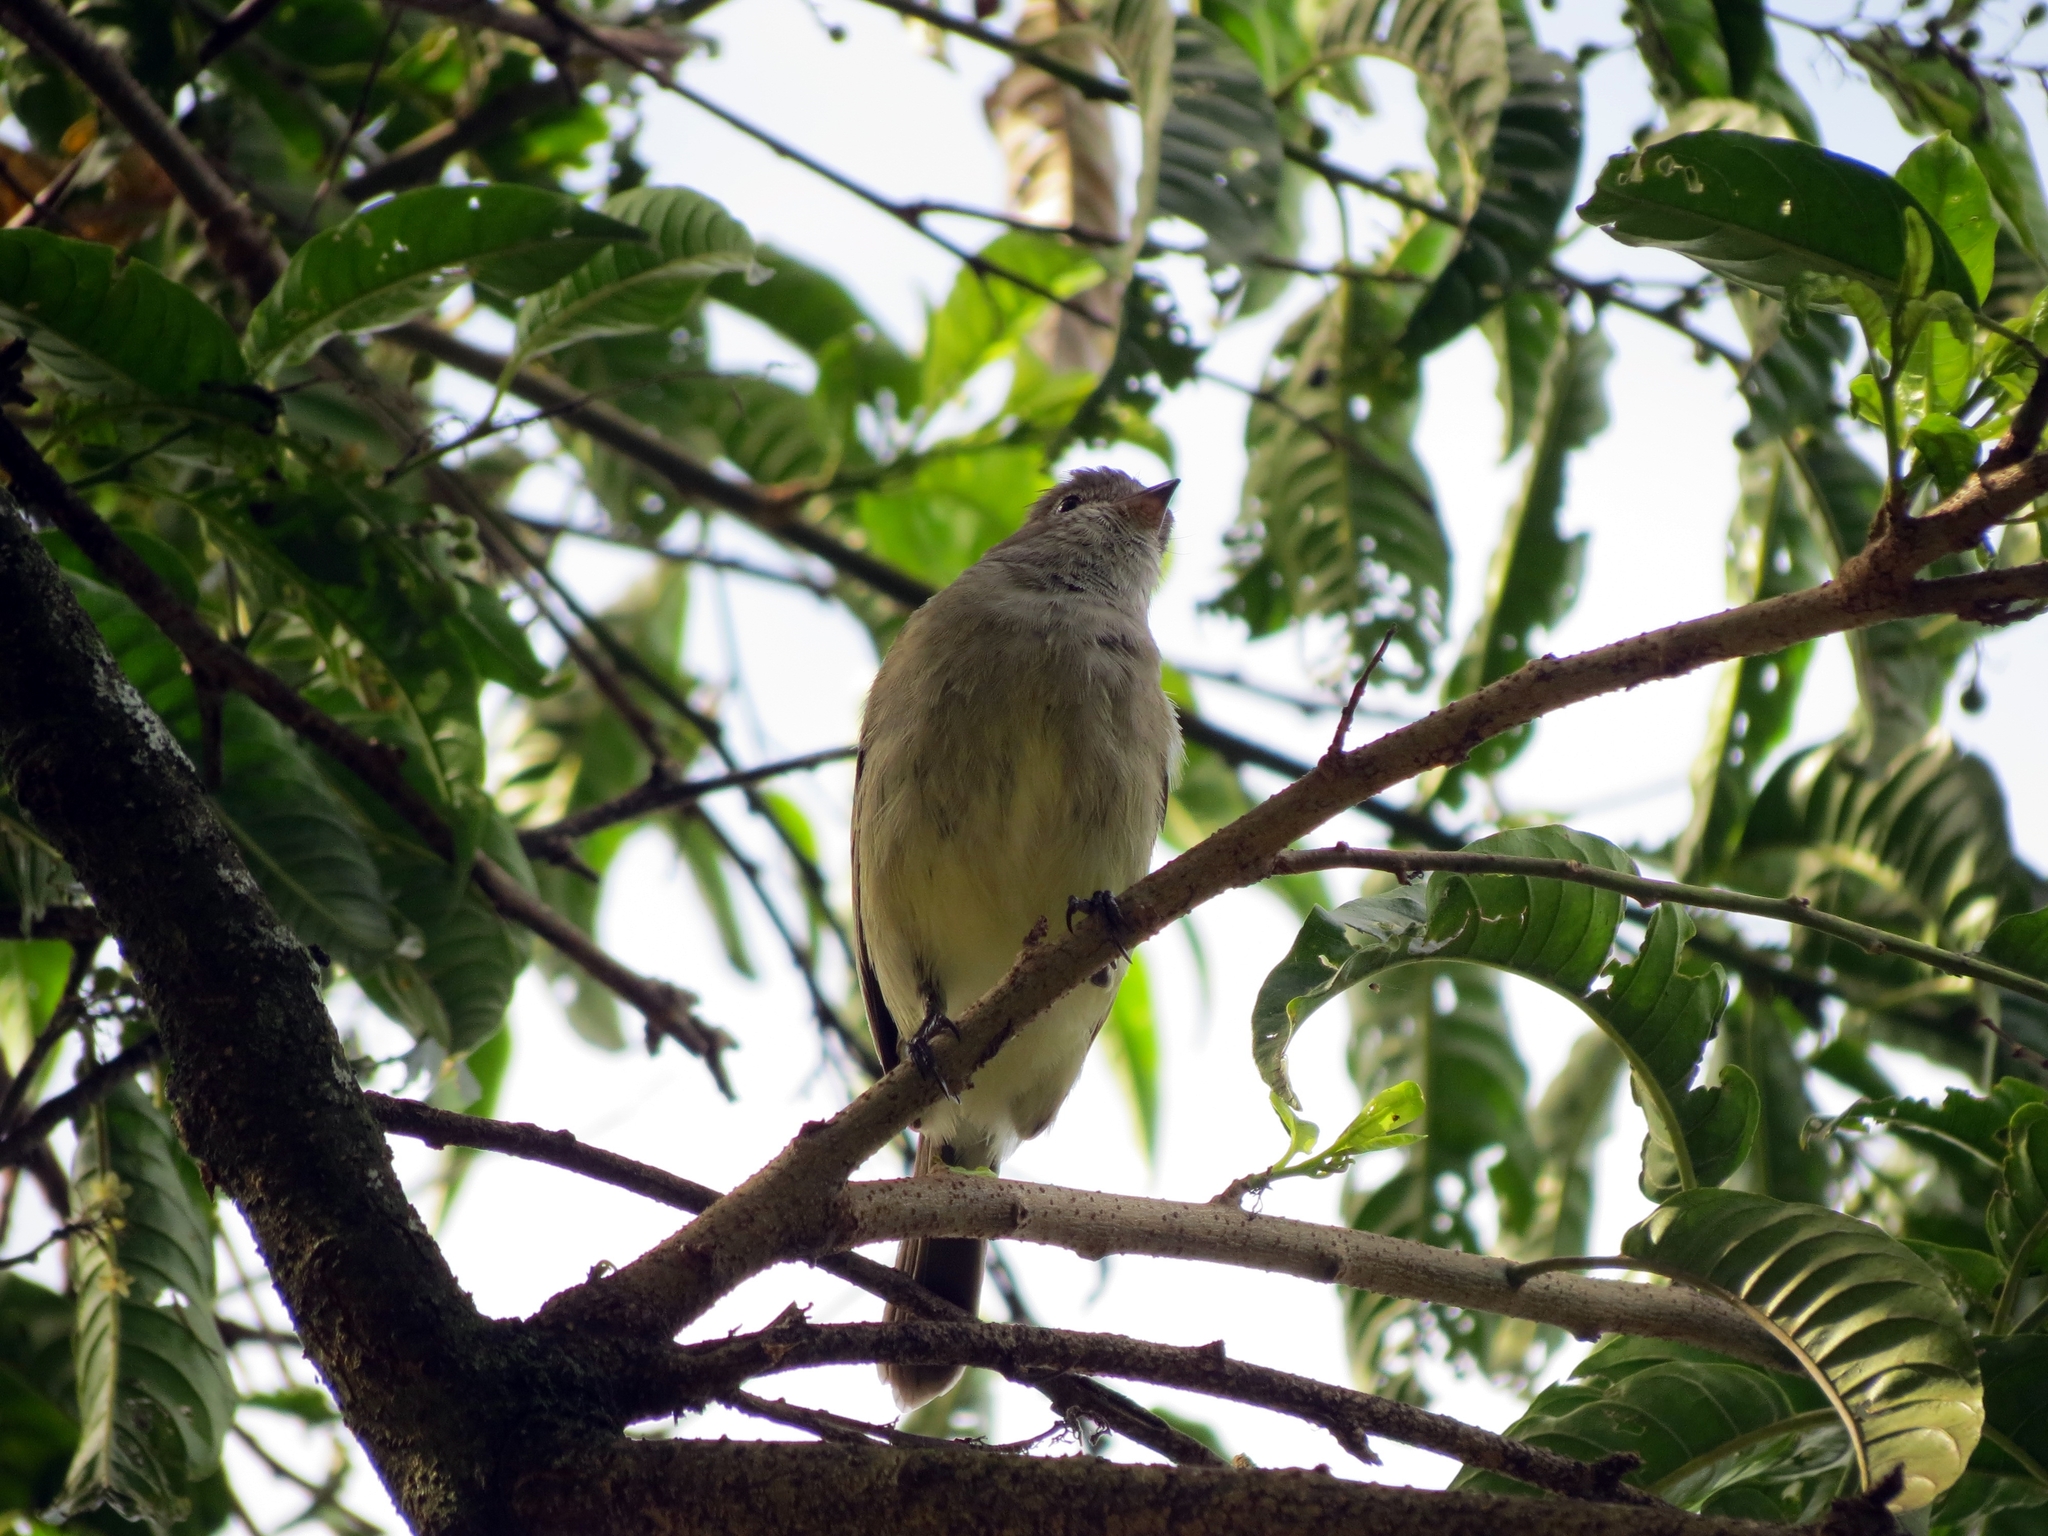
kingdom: Animalia
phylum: Chordata
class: Aves
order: Passeriformes
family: Tyrannidae
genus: Elaenia
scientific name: Elaenia flavogaster
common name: Yellow-bellied elaenia
